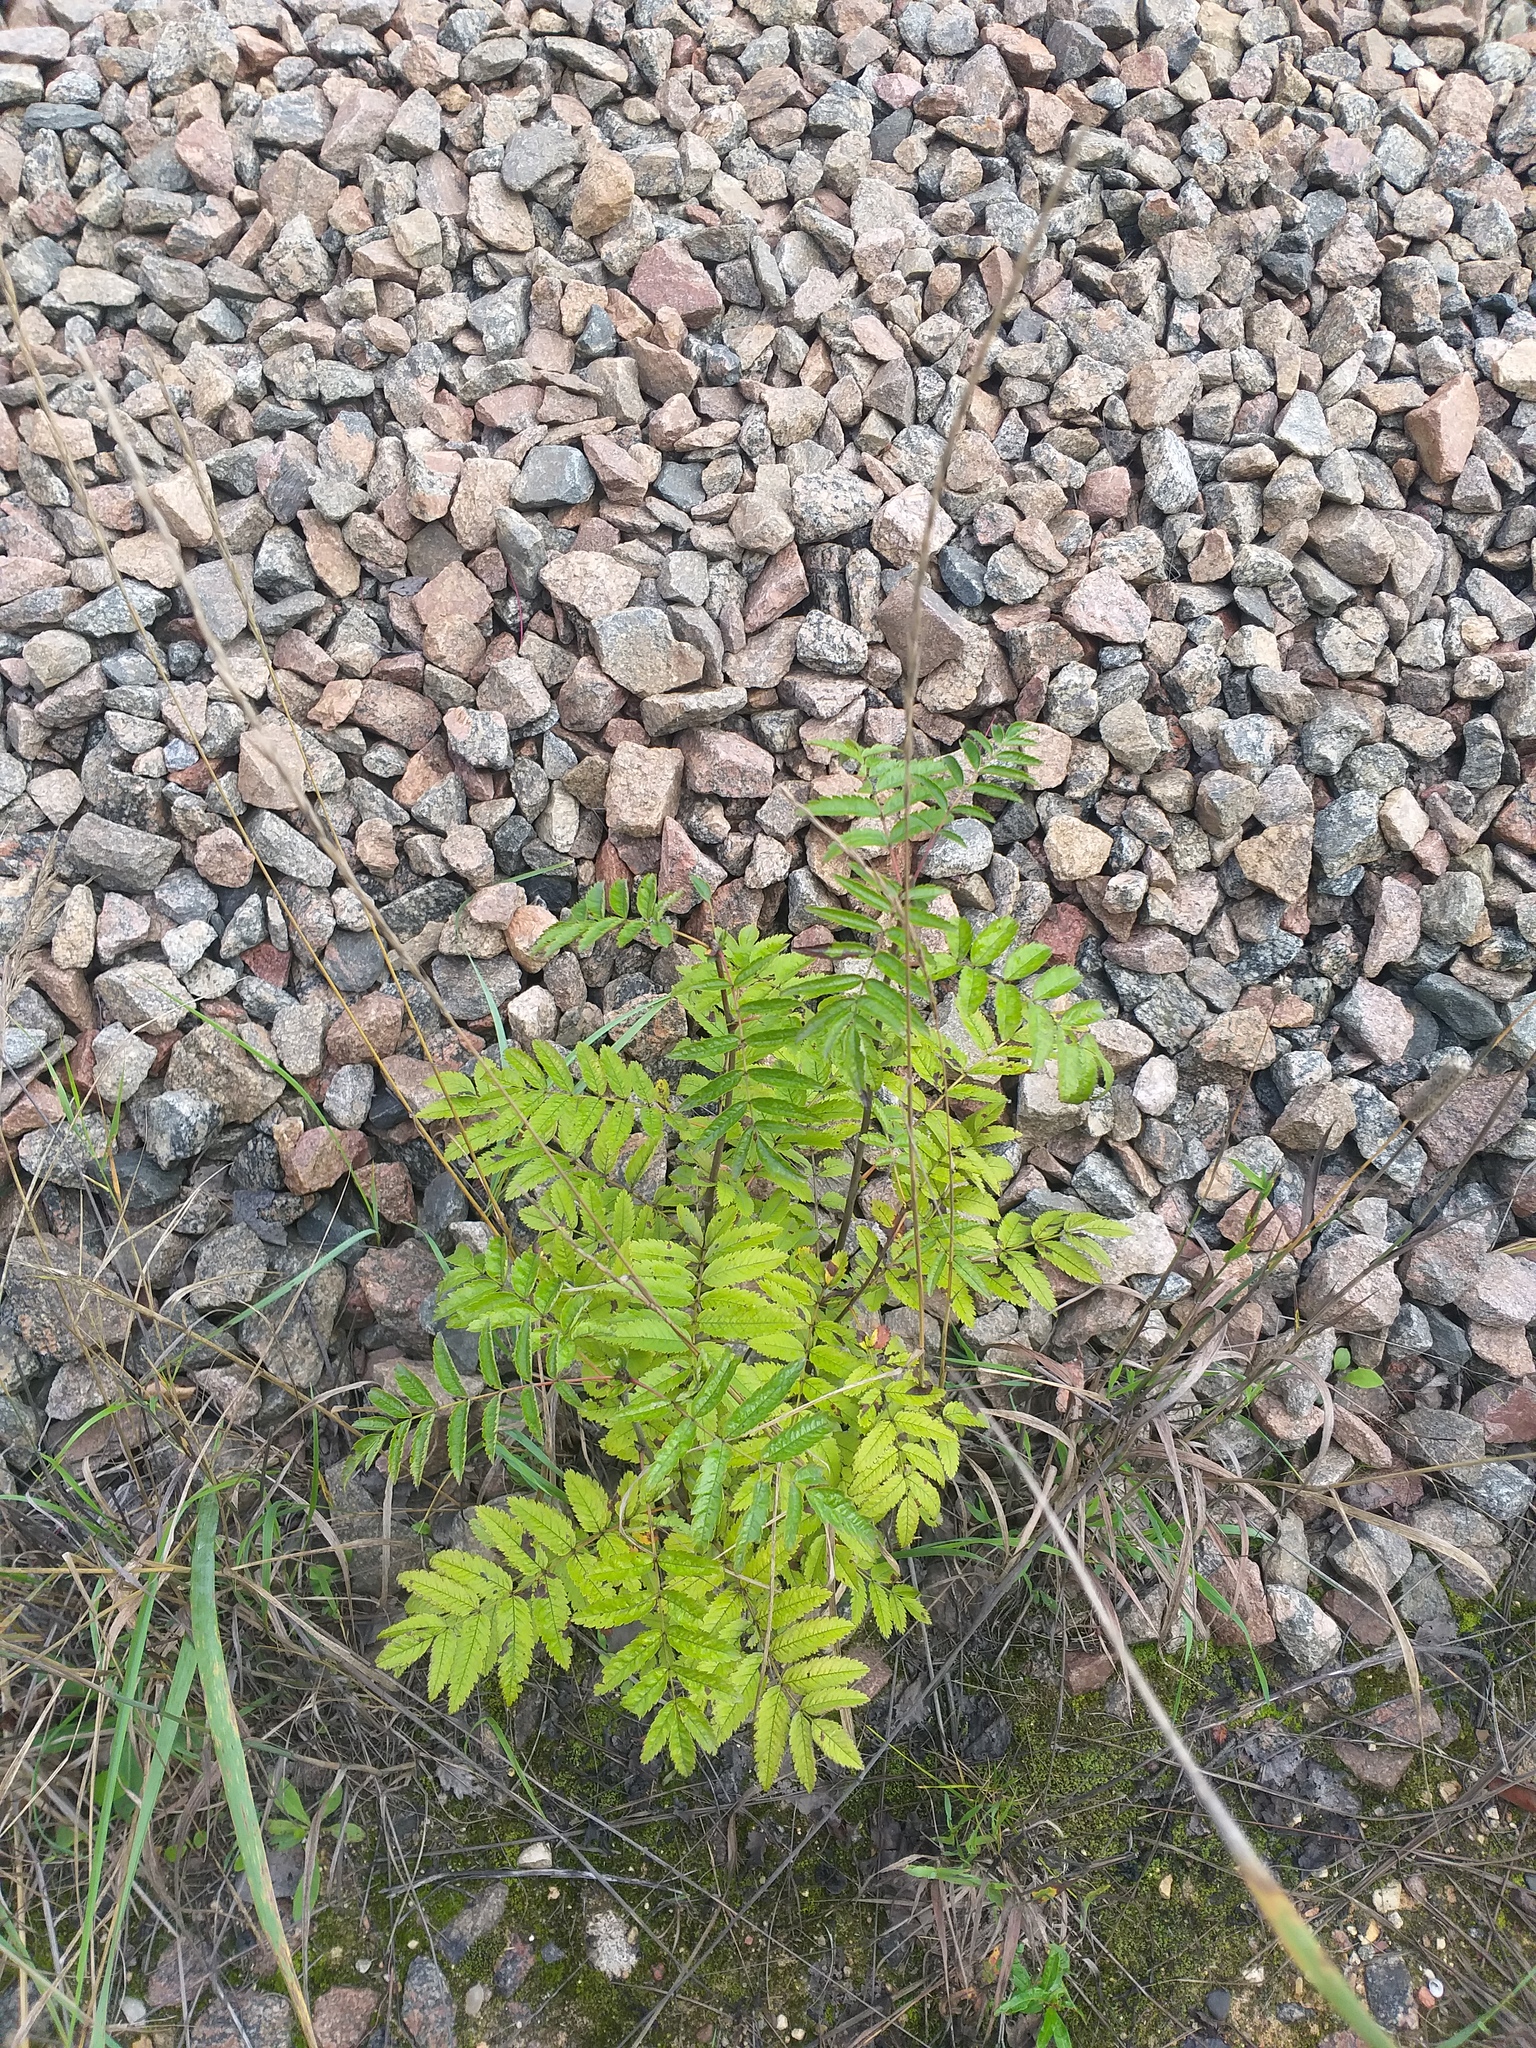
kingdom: Plantae
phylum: Tracheophyta
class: Magnoliopsida
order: Rosales
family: Rosaceae
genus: Sorbus
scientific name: Sorbus aucuparia
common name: Rowan
